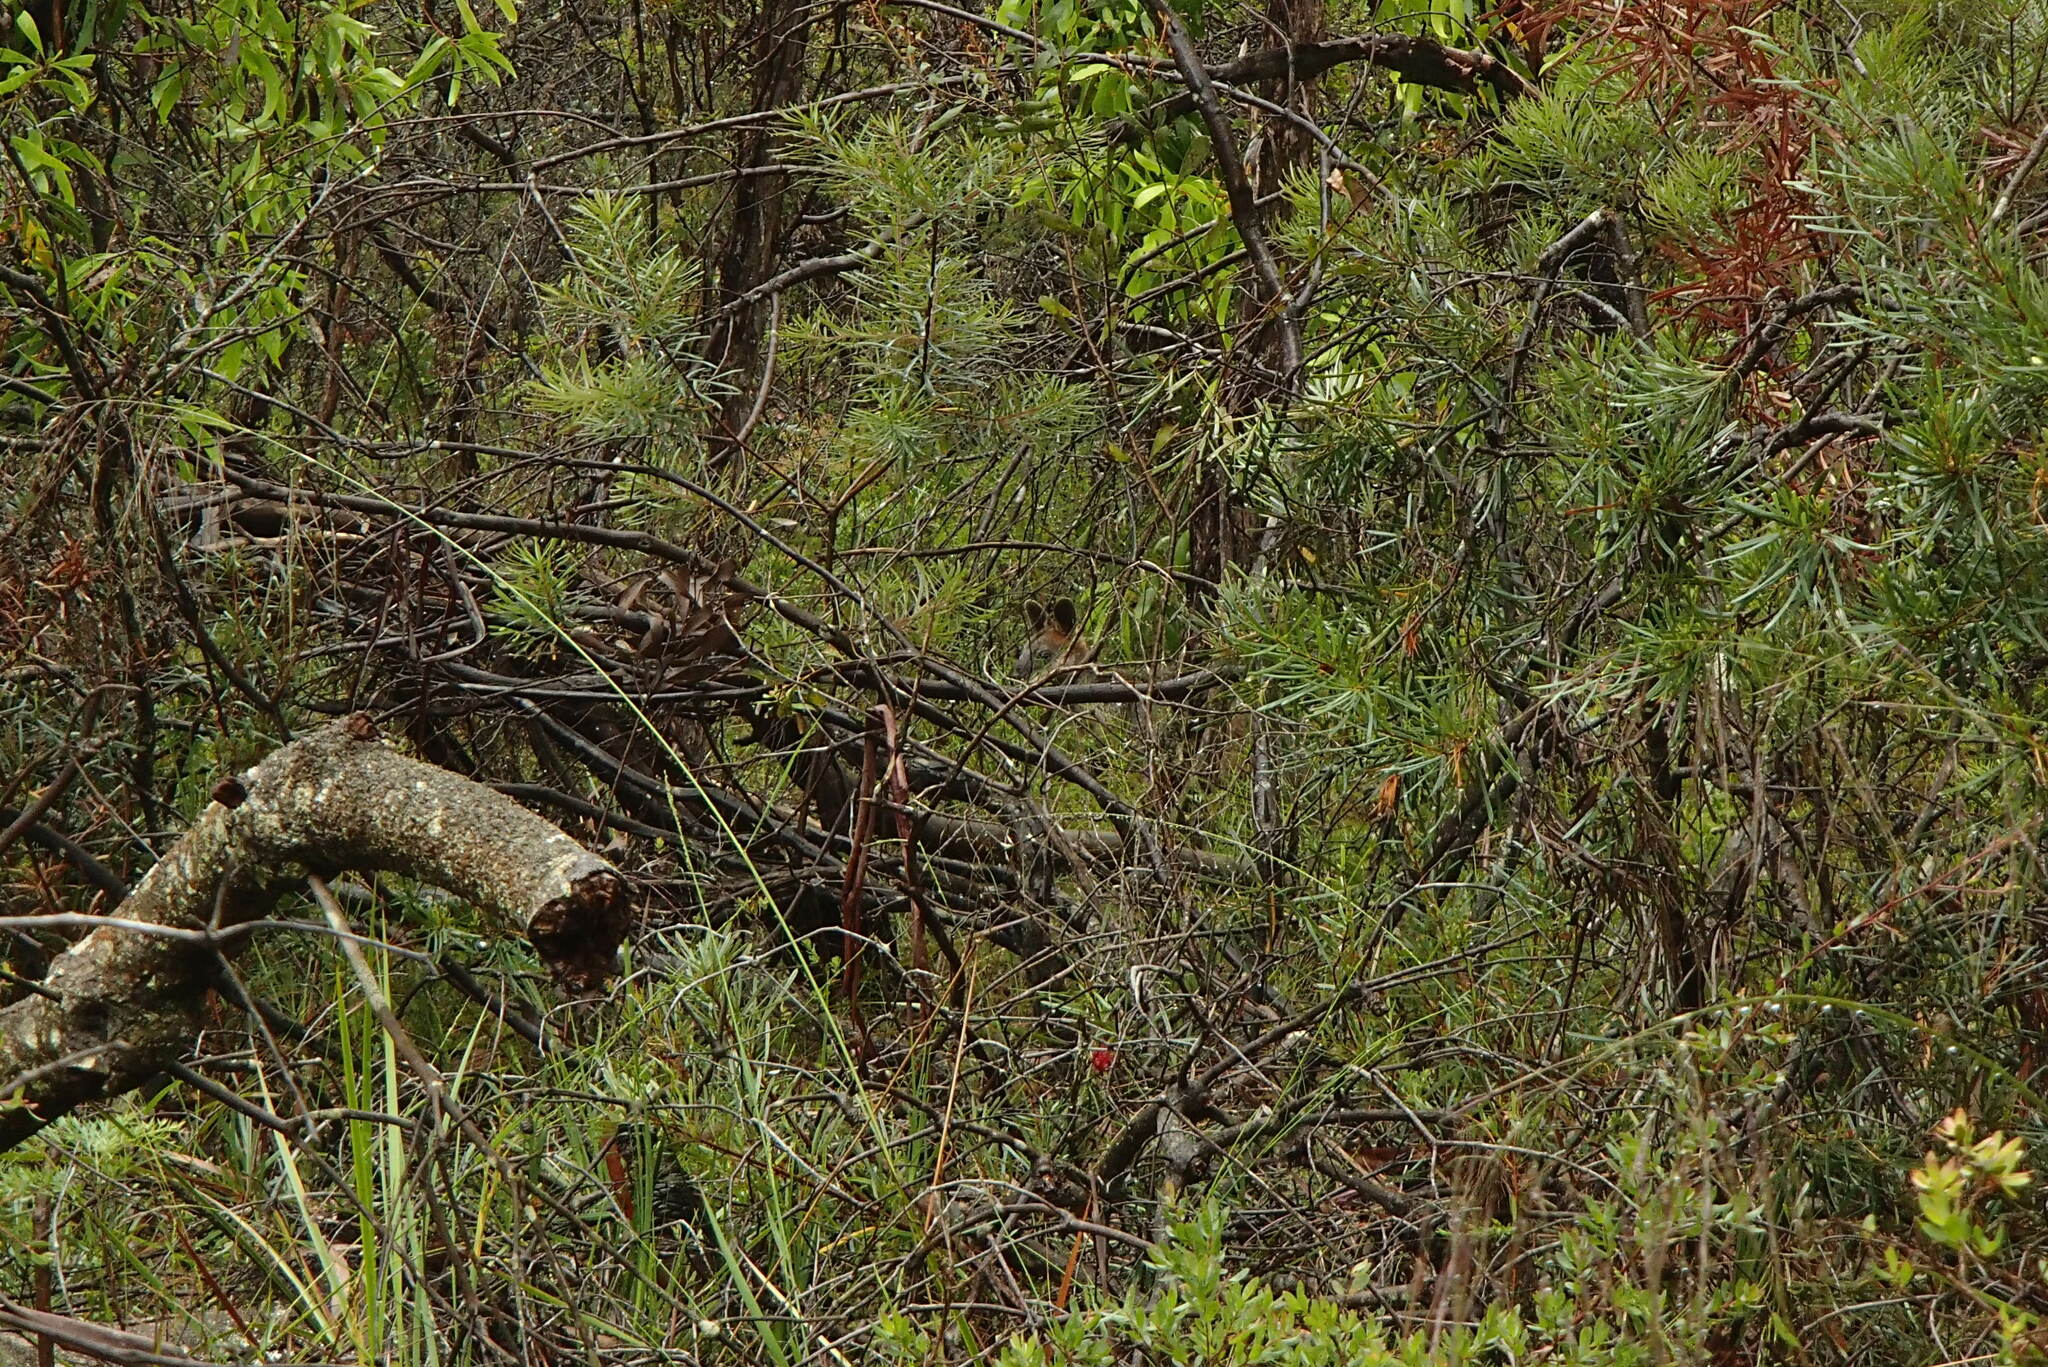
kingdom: Animalia
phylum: Chordata
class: Mammalia
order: Diprotodontia
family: Macropodidae
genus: Wallabia
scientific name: Wallabia bicolor
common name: Swamp wallaby
